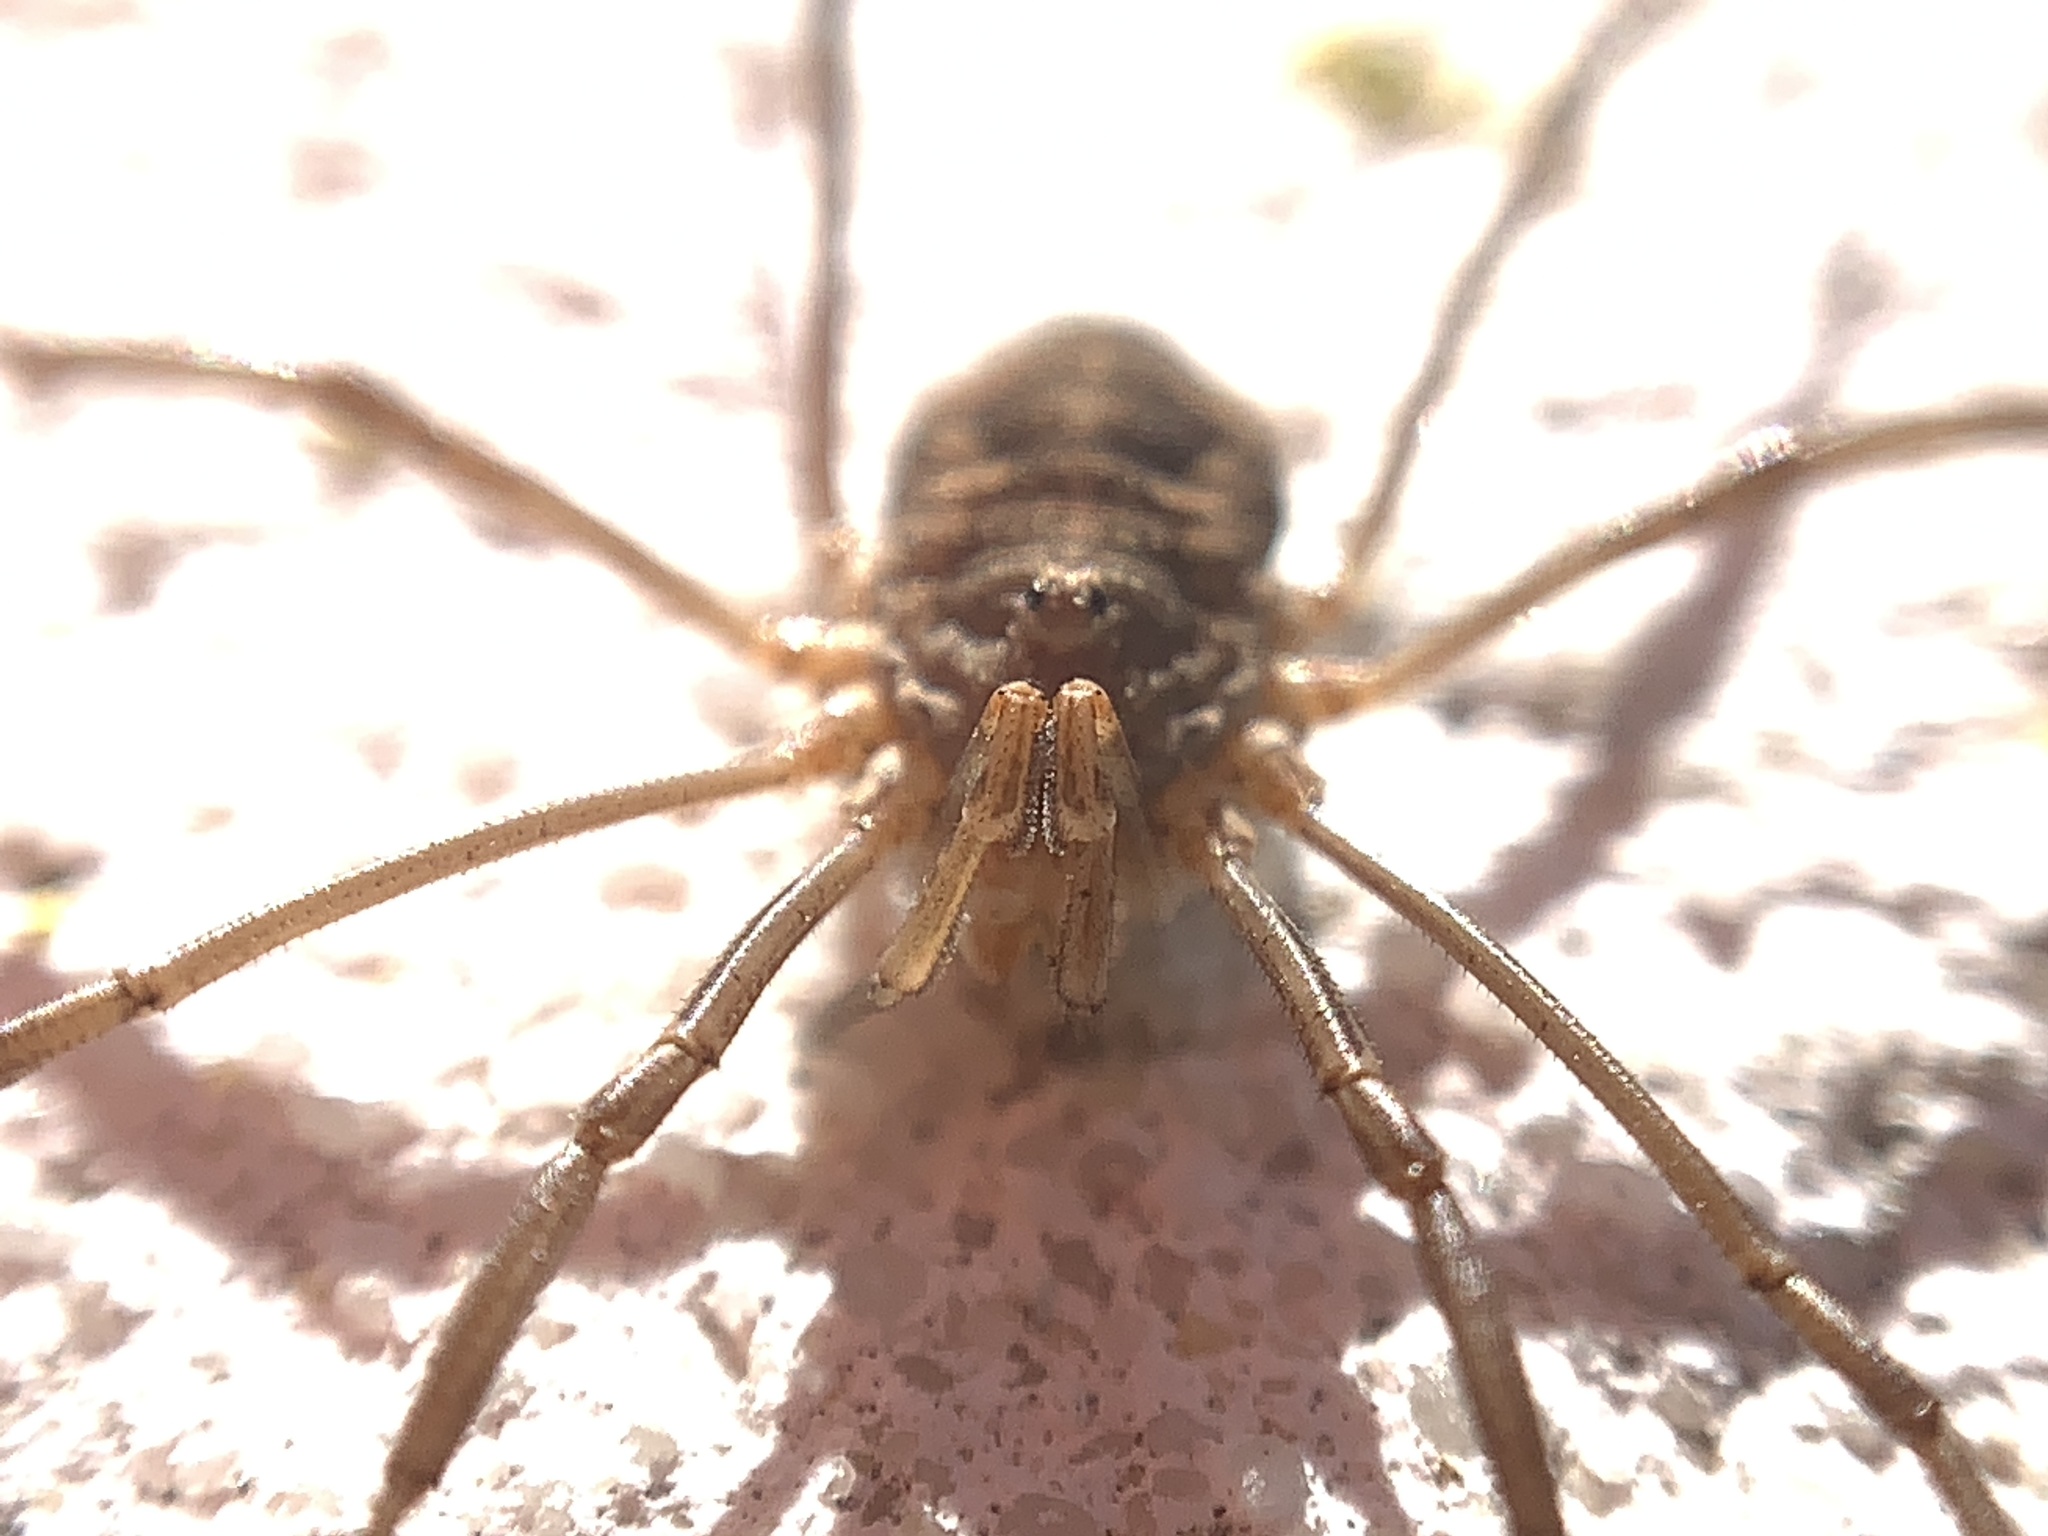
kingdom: Animalia
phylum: Arthropoda
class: Arachnida
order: Opiliones
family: Phalangiidae
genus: Phalangium
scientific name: Phalangium opilio
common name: Daddy longleg
